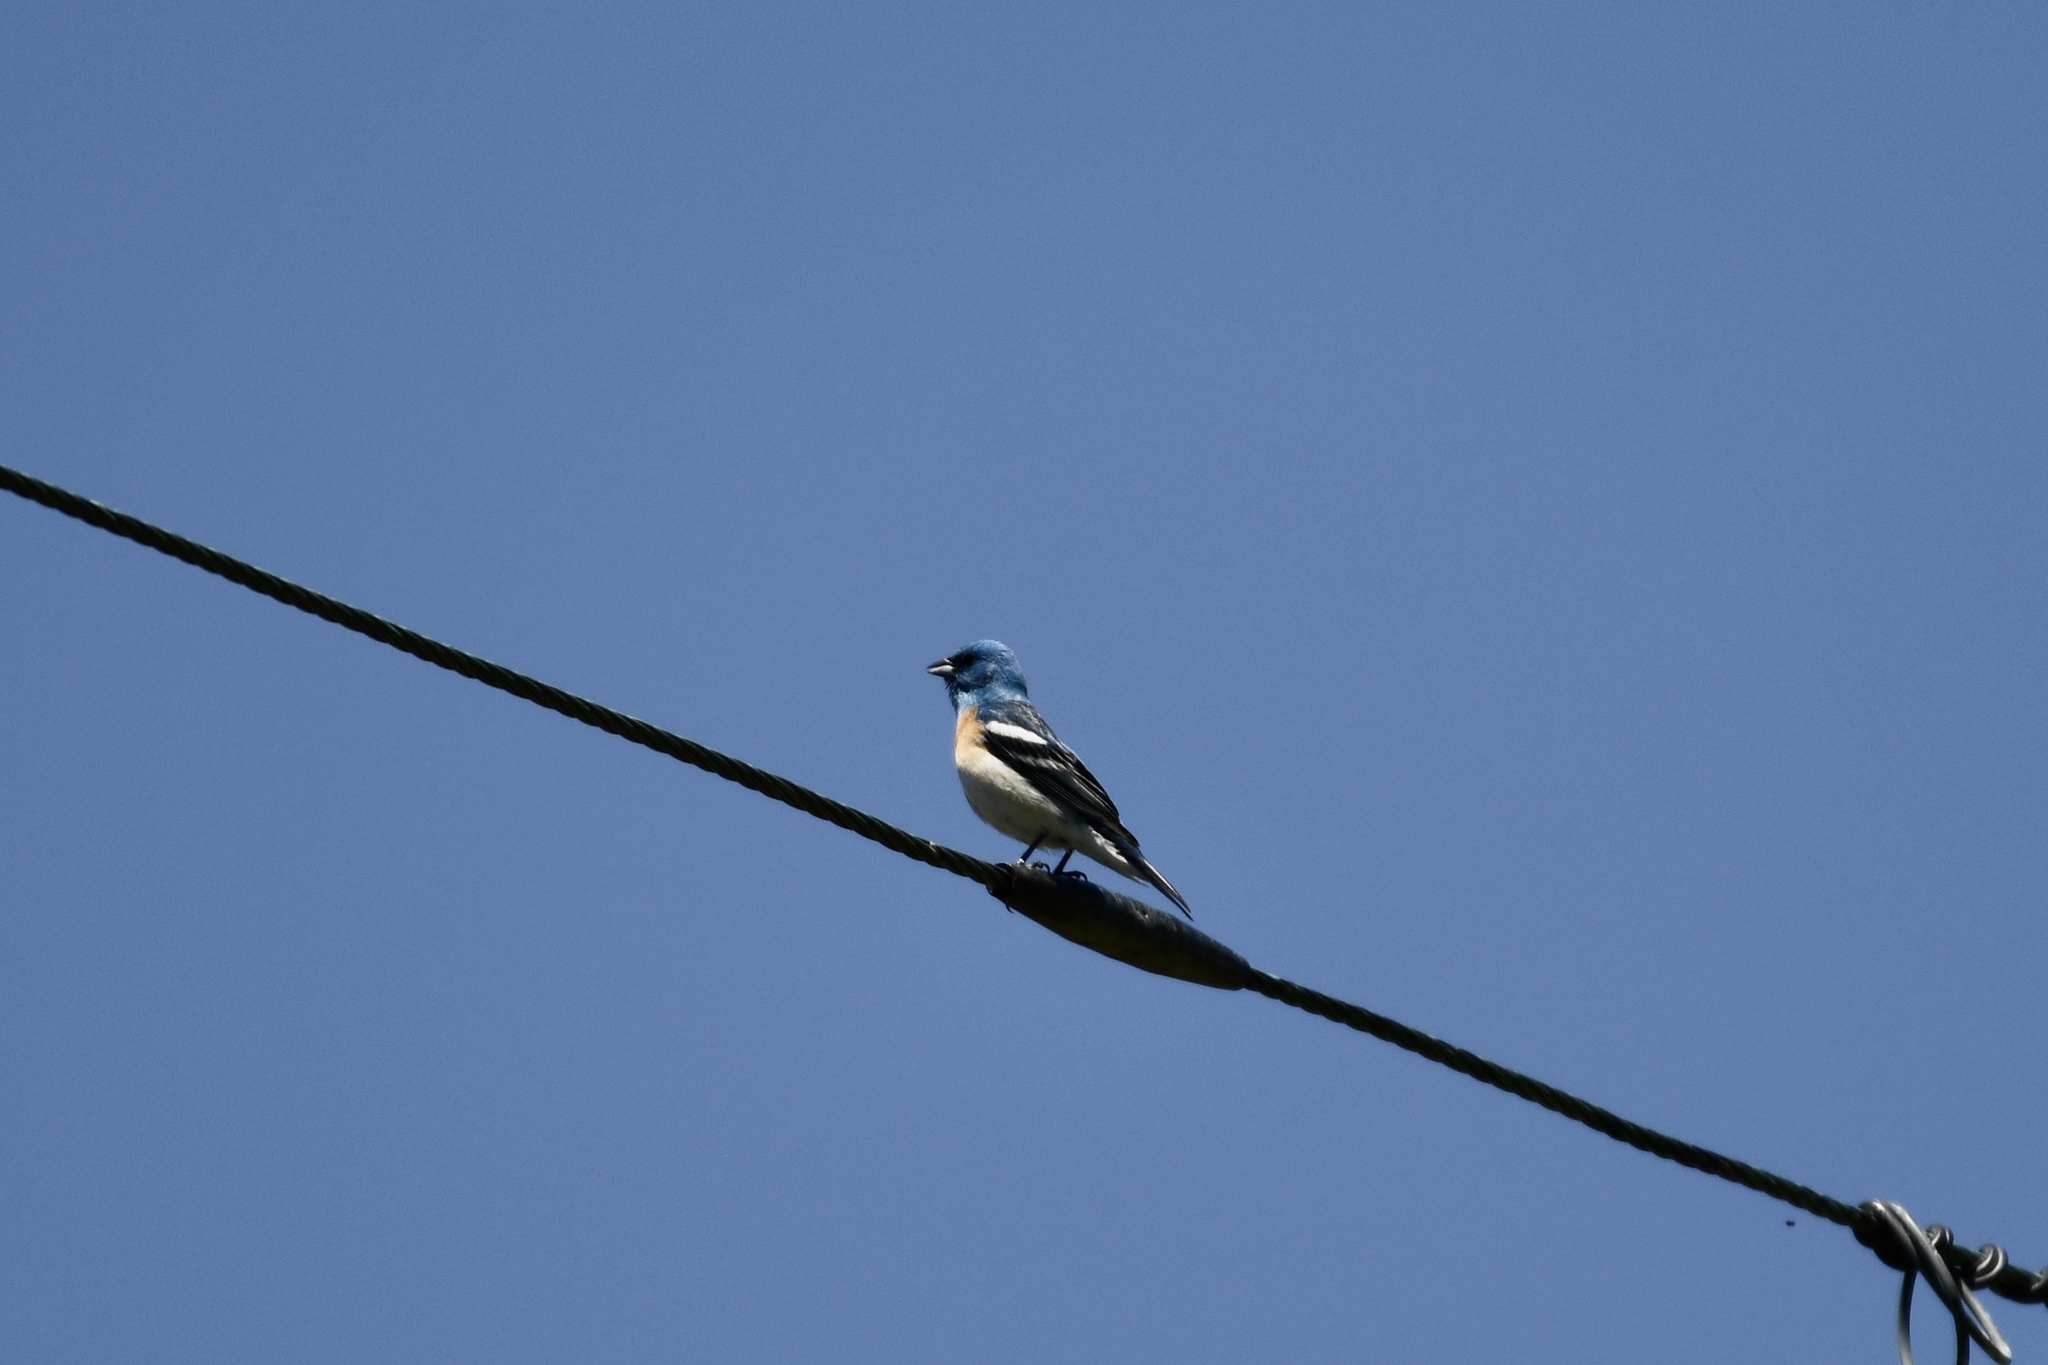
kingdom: Animalia
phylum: Chordata
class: Aves
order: Passeriformes
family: Cardinalidae
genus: Passerina
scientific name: Passerina amoena
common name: Lazuli bunting
